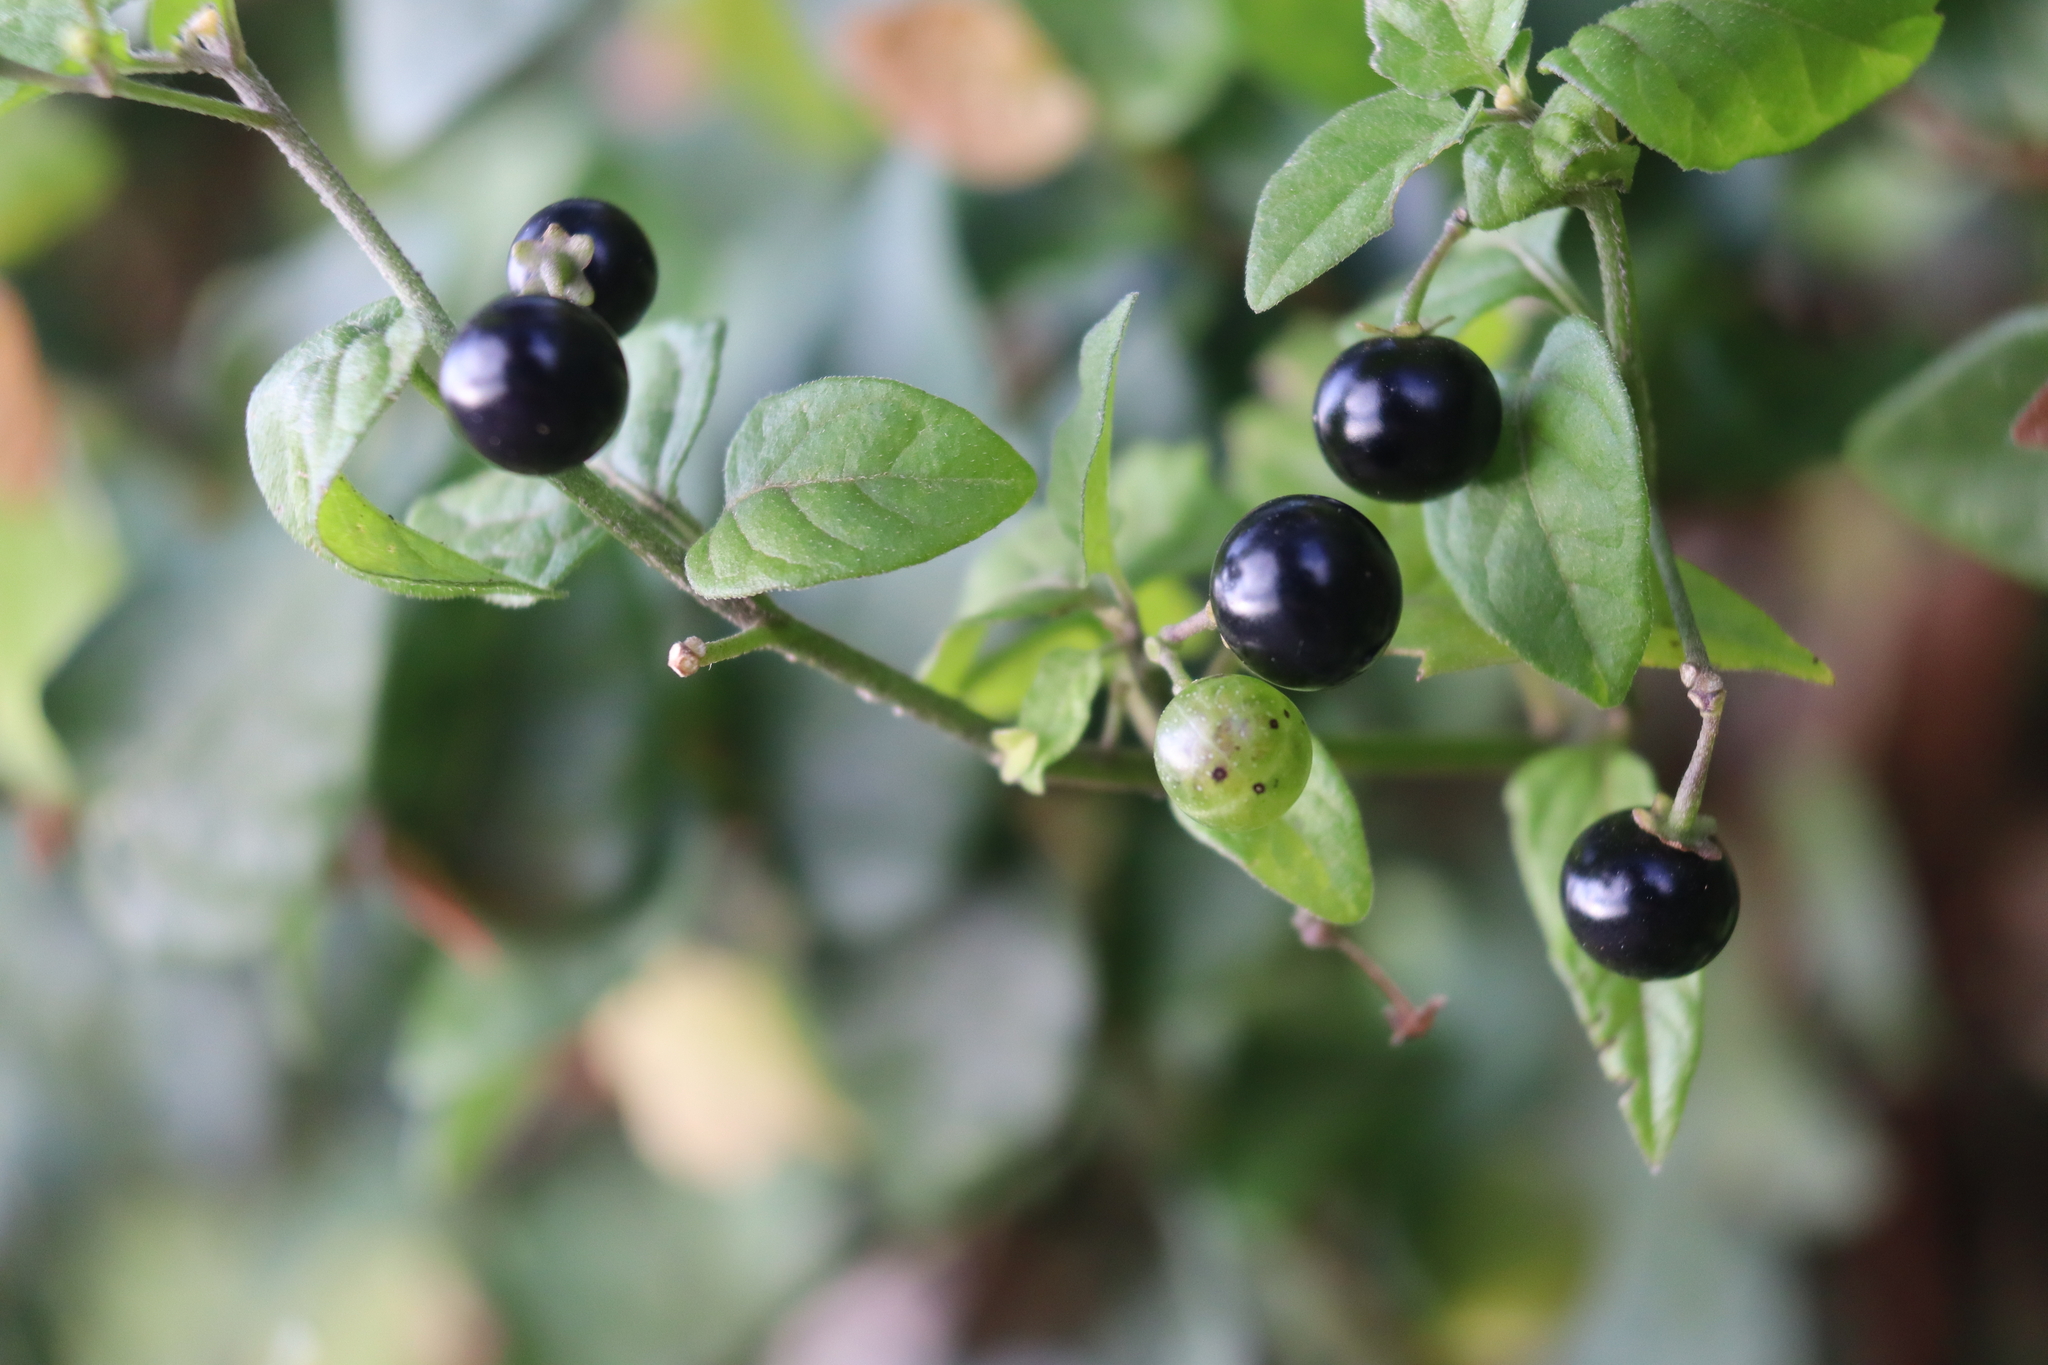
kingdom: Plantae
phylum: Tracheophyta
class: Magnoliopsida
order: Solanales
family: Solanaceae
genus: Solanum
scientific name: Solanum americanum
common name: American black nightshade
